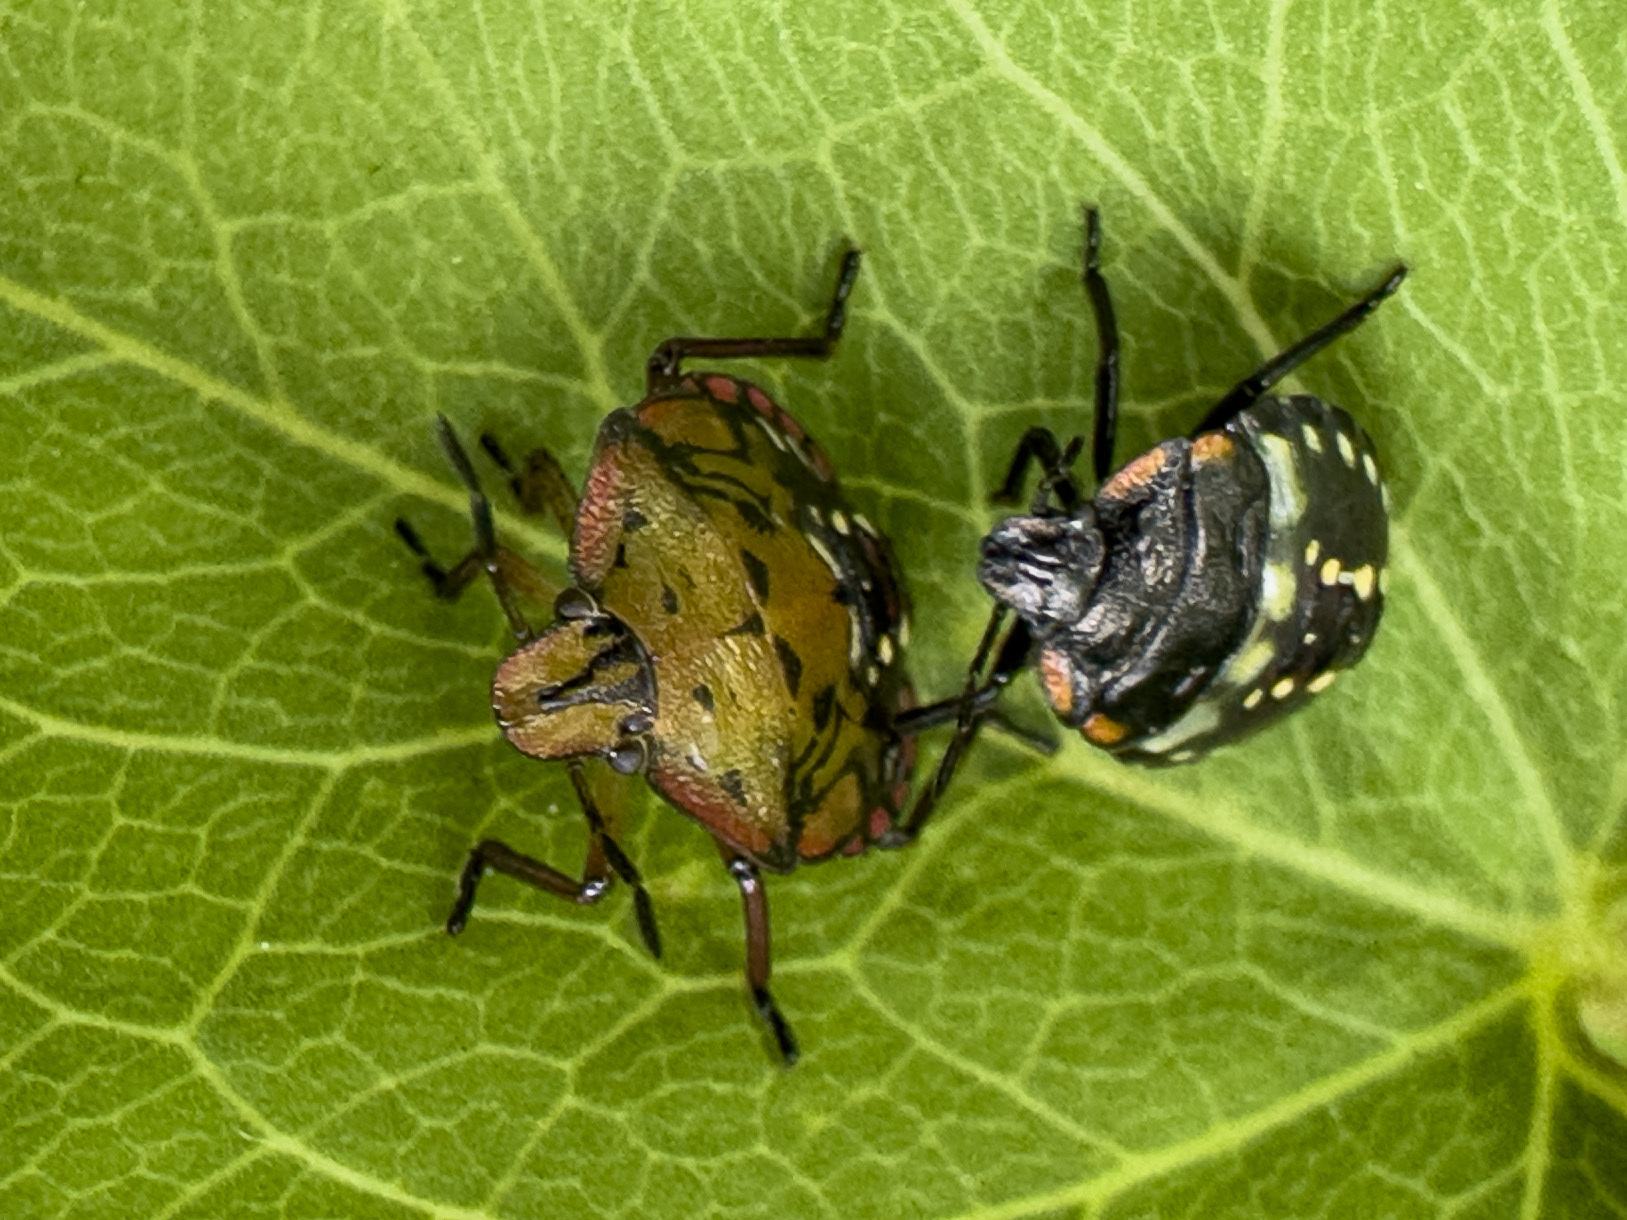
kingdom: Animalia
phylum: Arthropoda
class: Insecta
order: Hemiptera
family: Pentatomidae
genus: Nezara
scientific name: Nezara viridula
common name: Southern green stink bug
